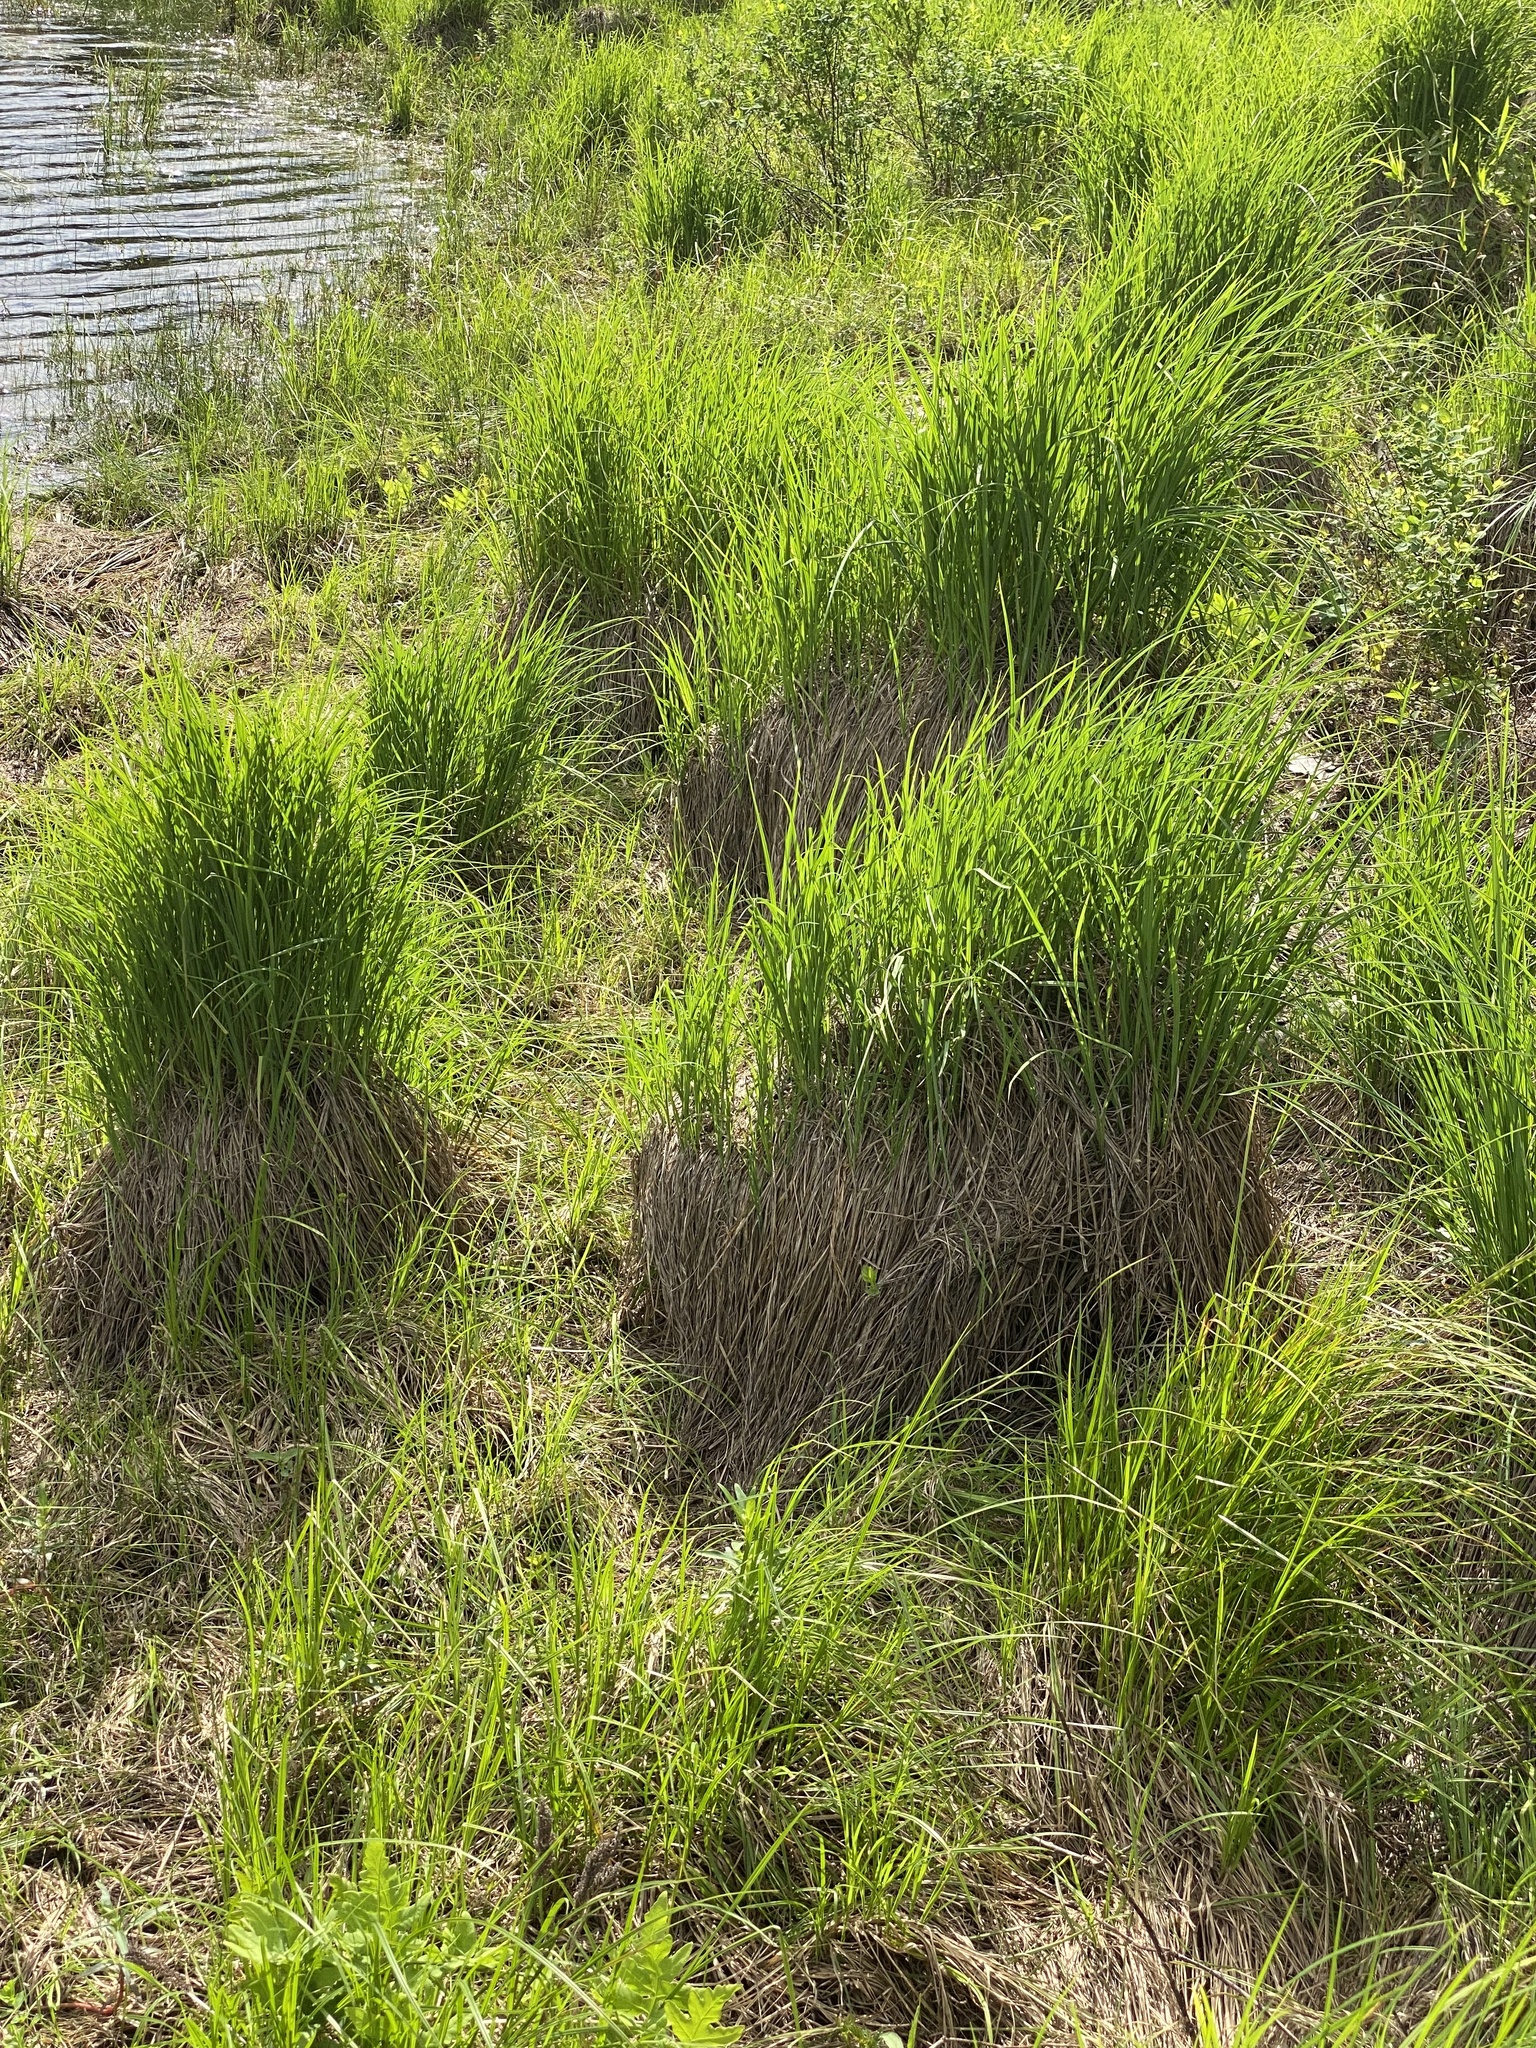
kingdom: Plantae
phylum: Tracheophyta
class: Liliopsida
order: Poales
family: Cyperaceae
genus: Carex
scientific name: Carex stricta
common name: Hummock sedge
